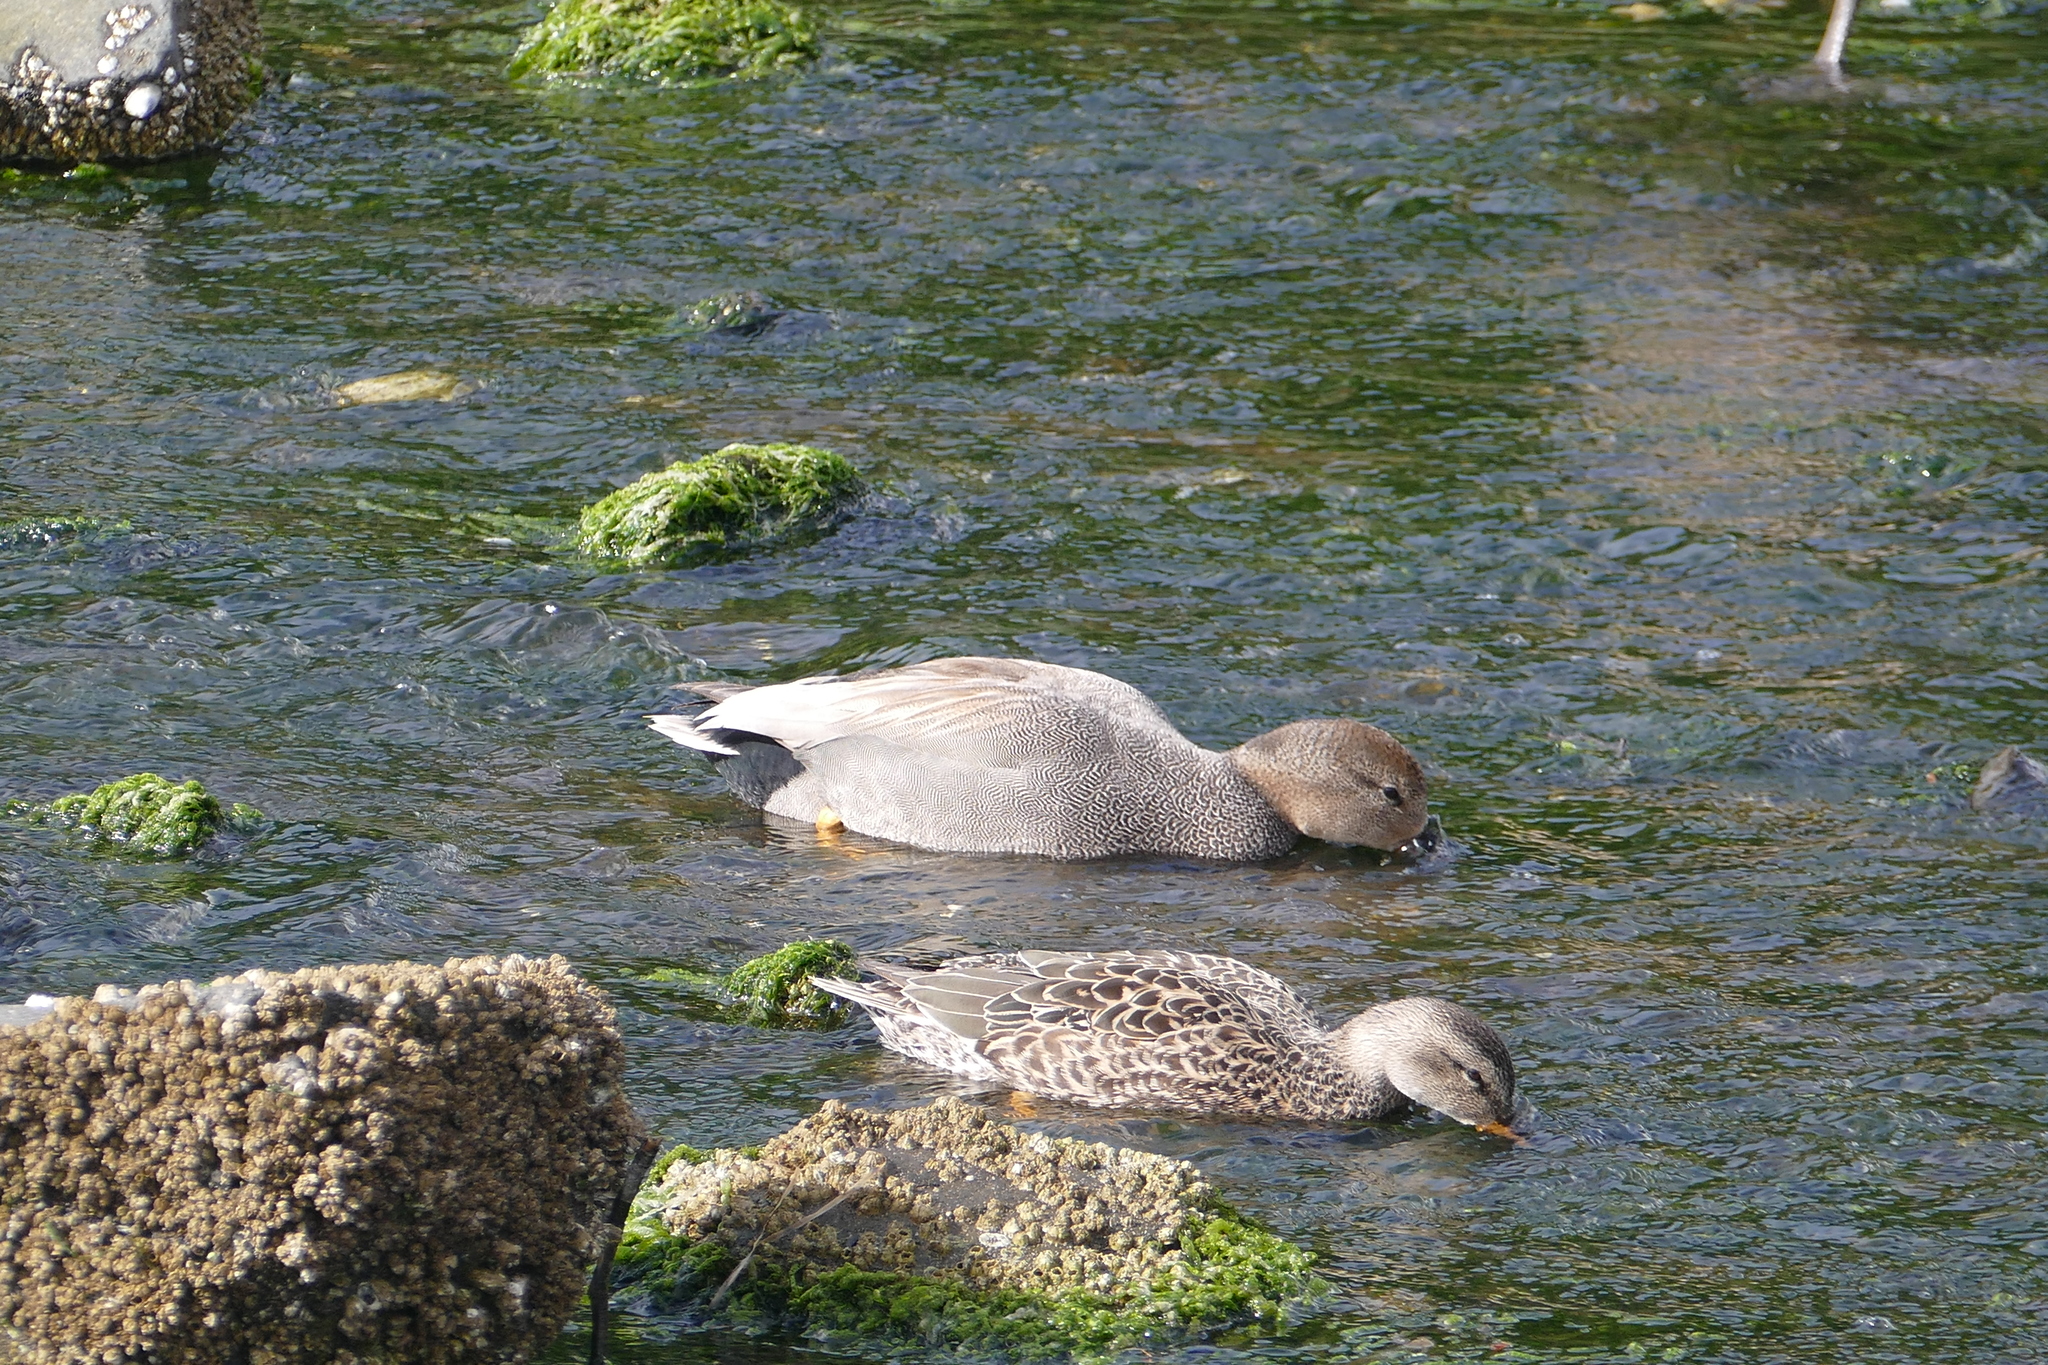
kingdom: Animalia
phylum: Chordata
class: Aves
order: Anseriformes
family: Anatidae
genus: Mareca
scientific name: Mareca strepera
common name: Gadwall
